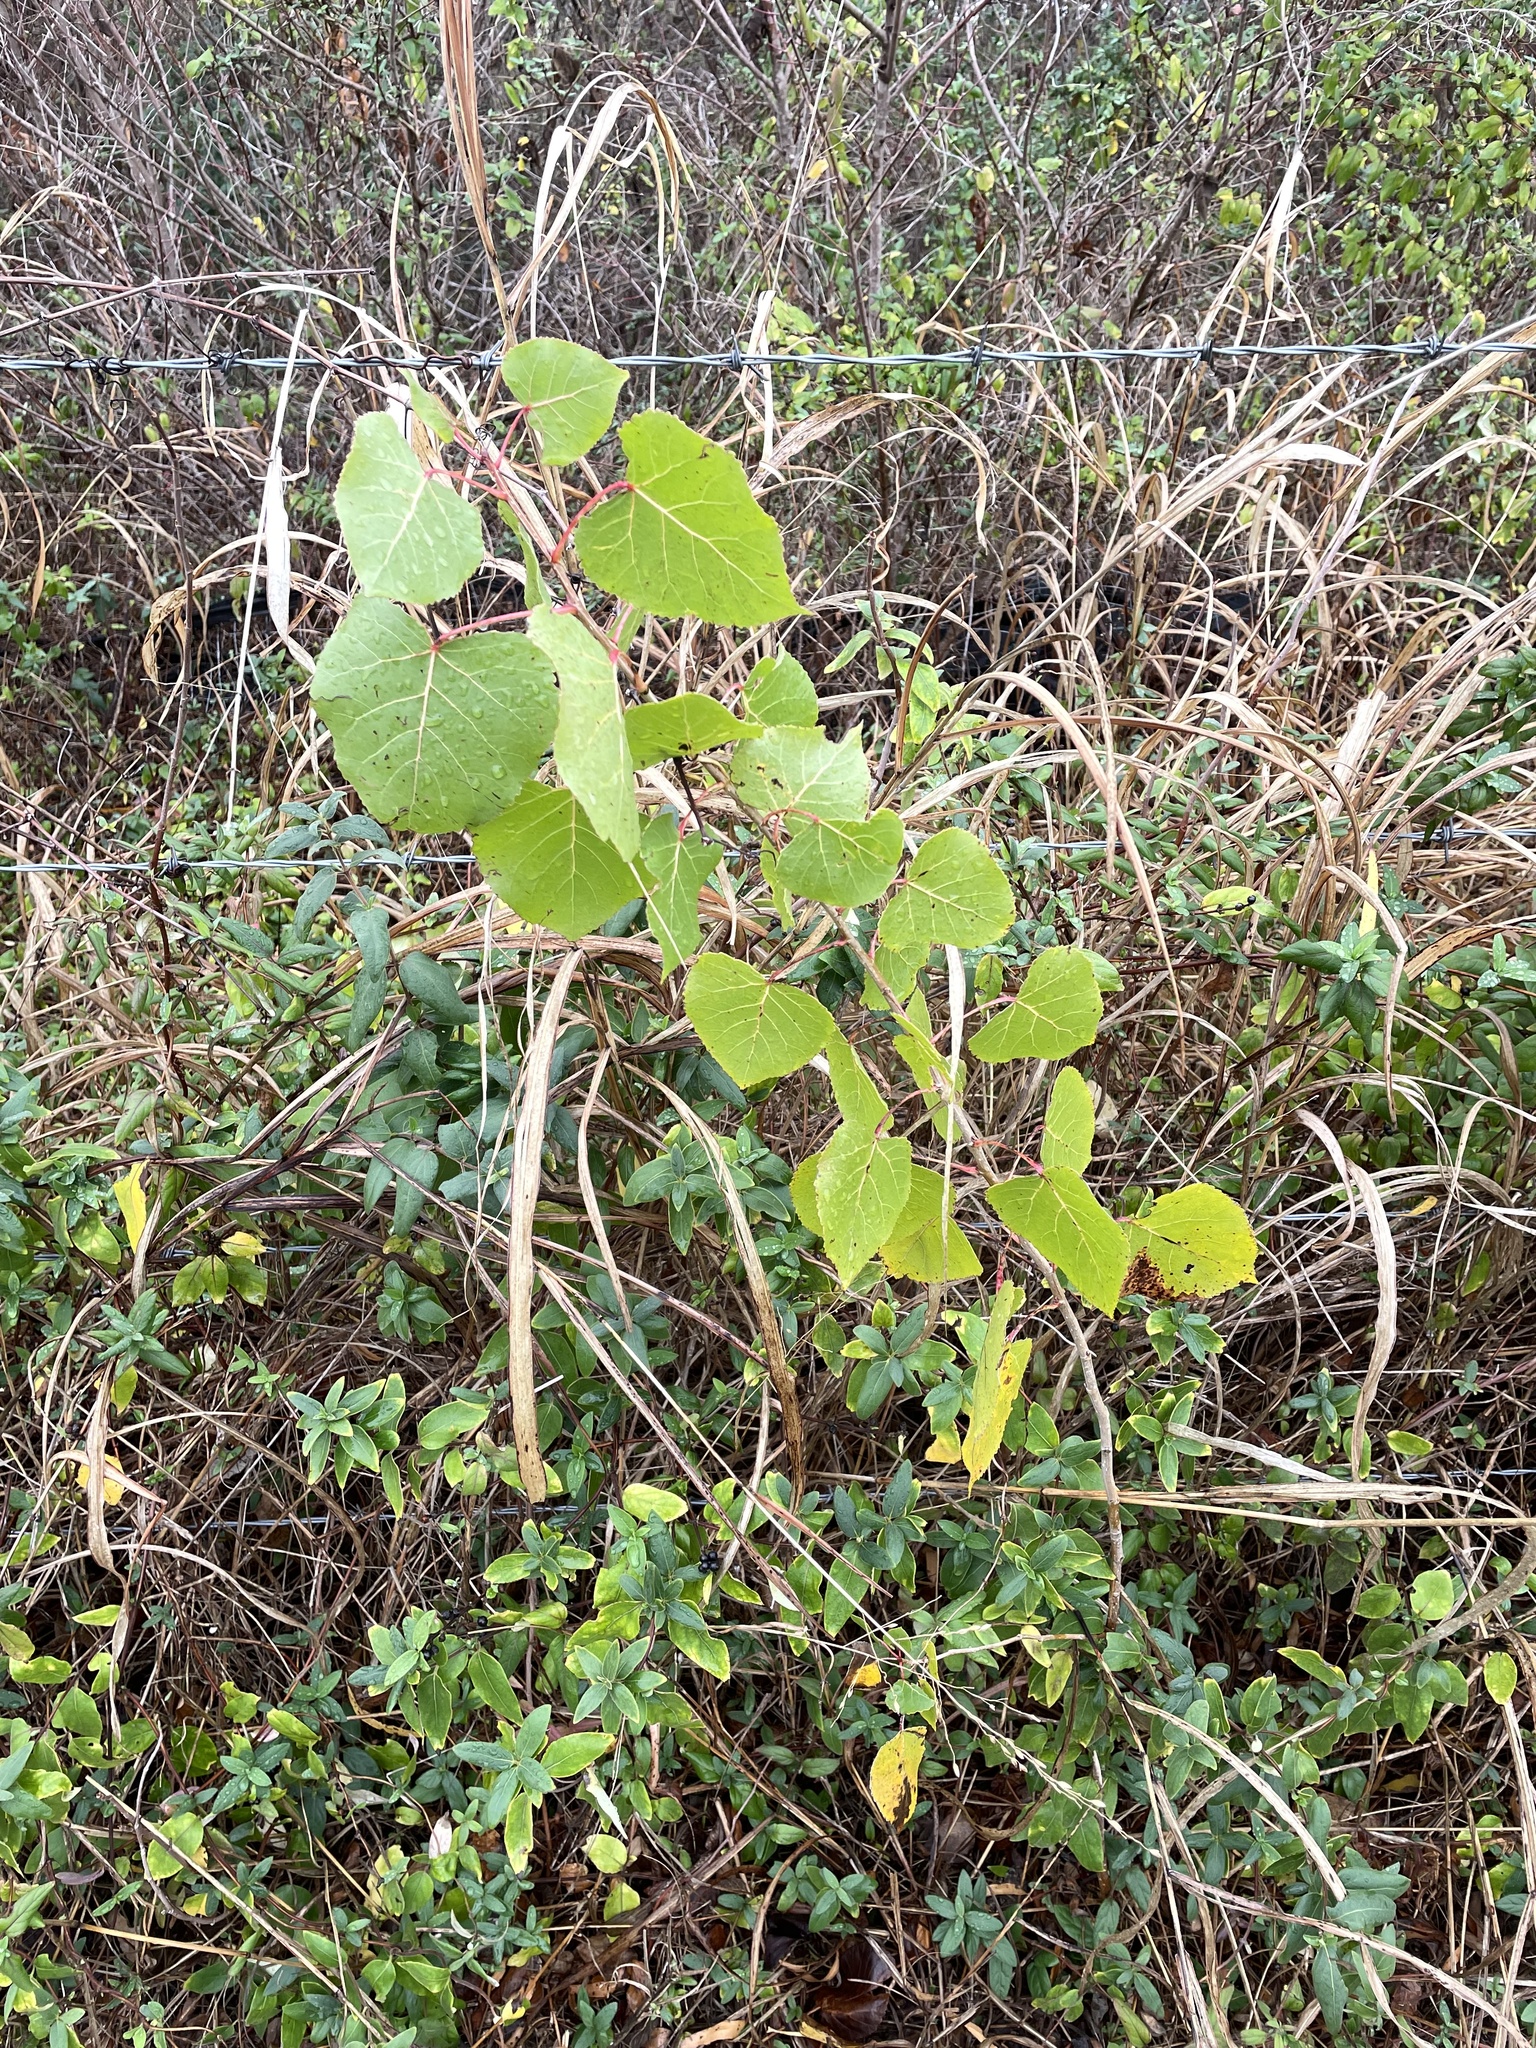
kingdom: Plantae
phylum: Tracheophyta
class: Magnoliopsida
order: Malpighiales
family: Salicaceae
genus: Populus
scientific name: Populus deltoides
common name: Eastern cottonwood
